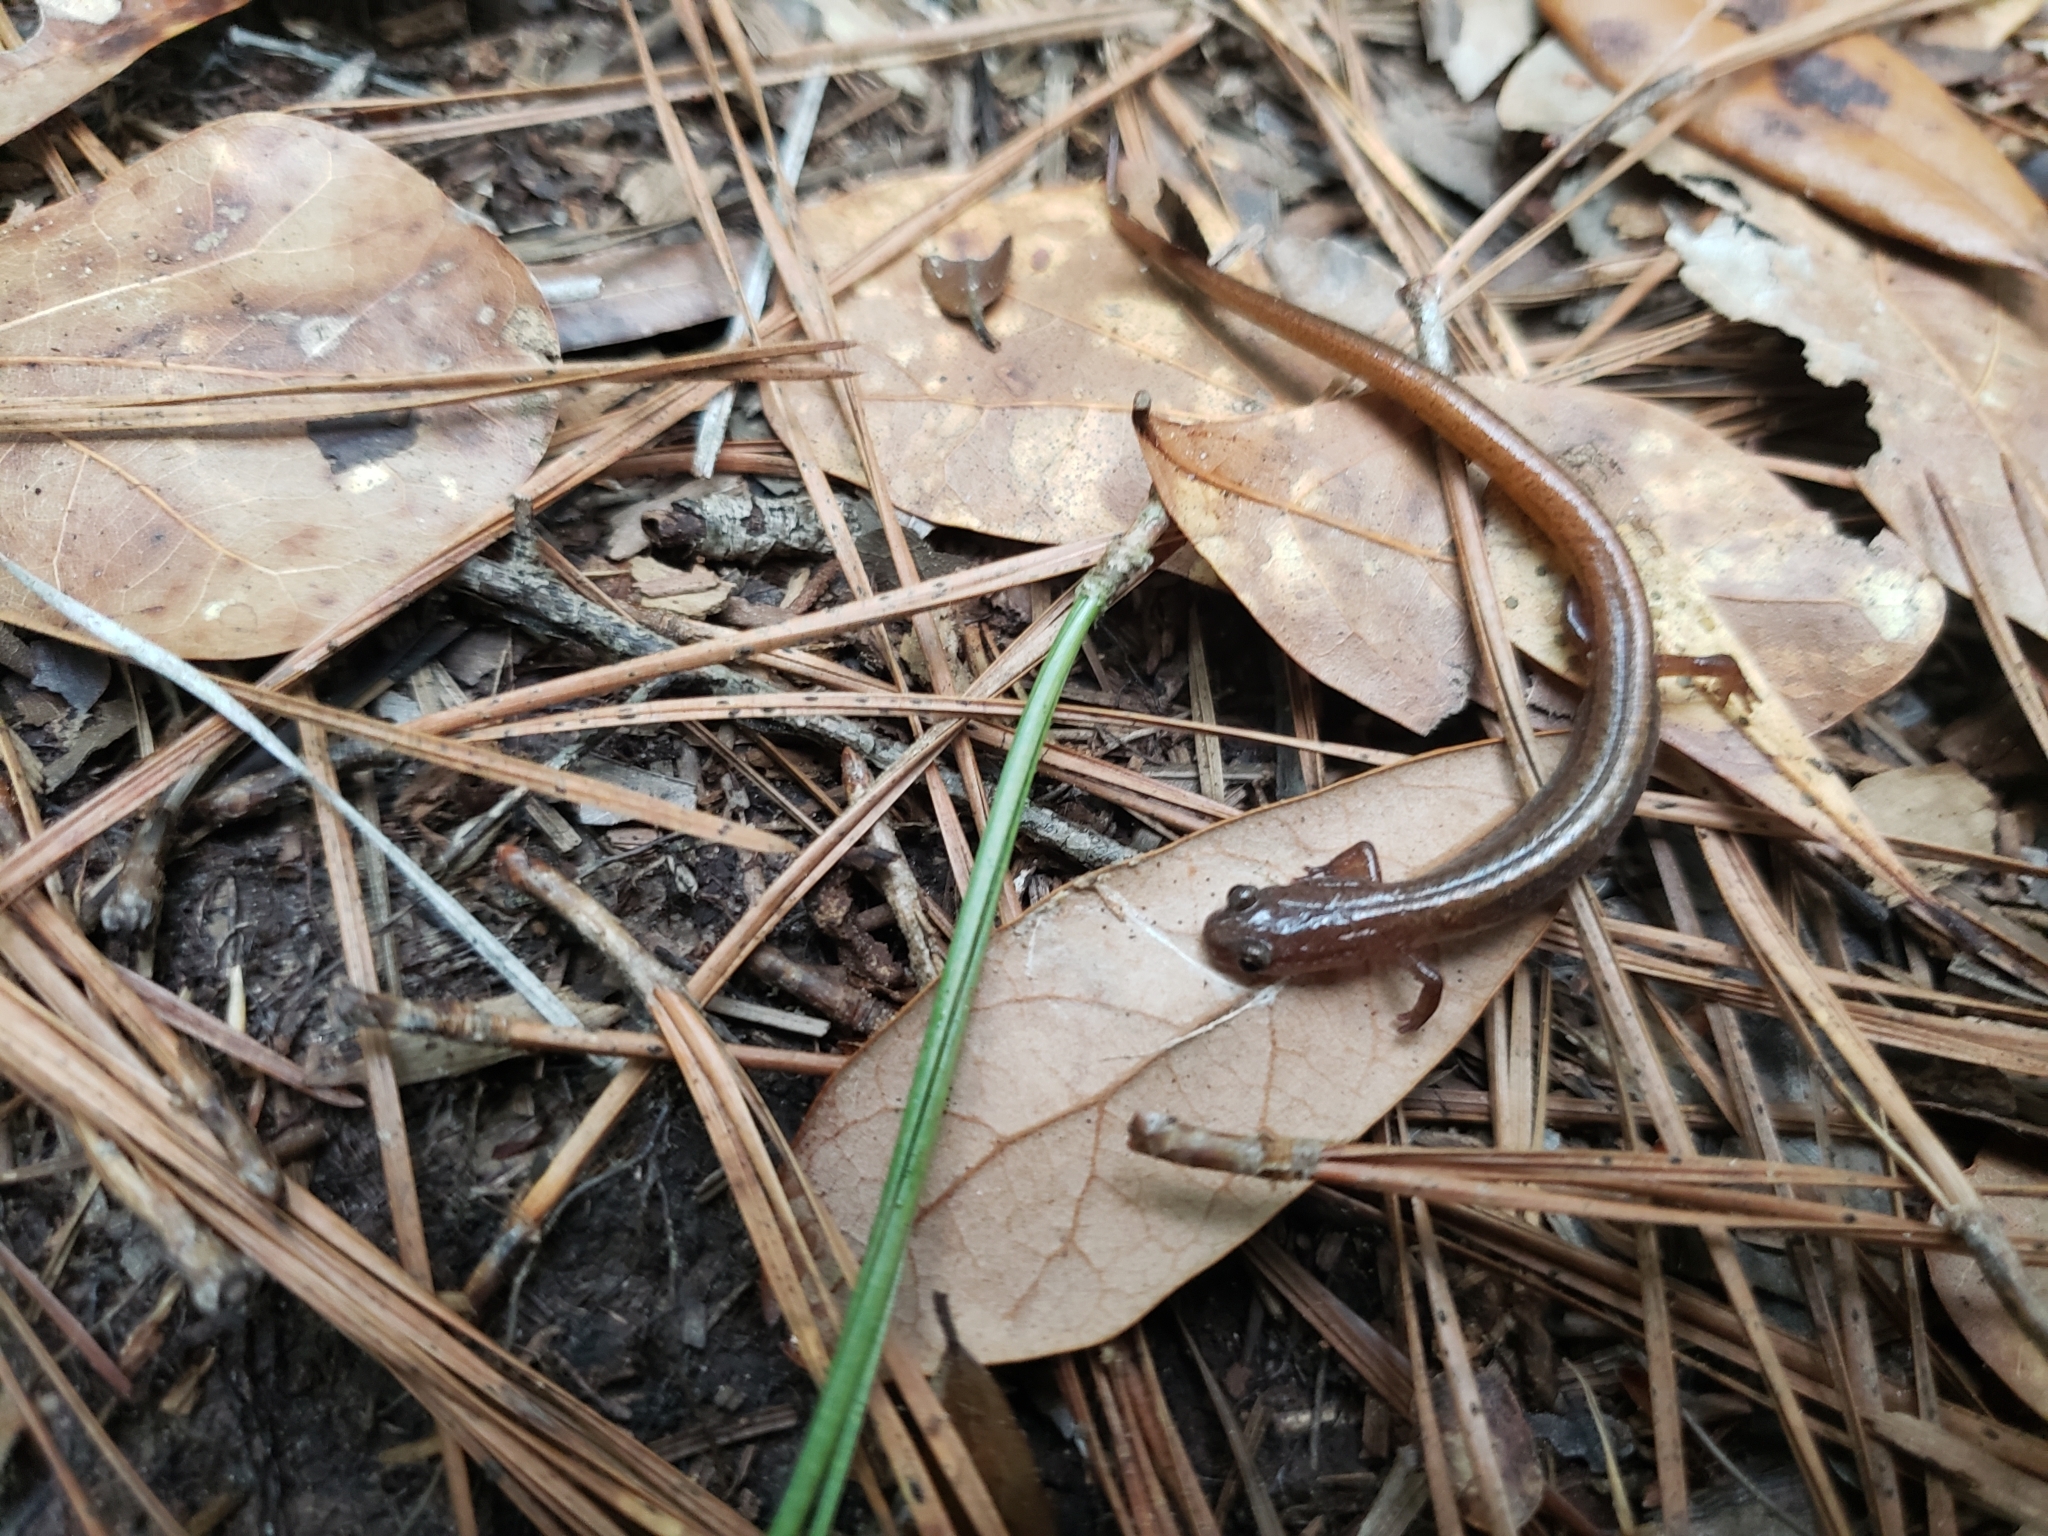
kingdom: Animalia
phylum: Chordata
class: Amphibia
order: Caudata
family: Plethodontidae
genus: Eurycea
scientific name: Eurycea paludicola
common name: Western dwarf salamander
